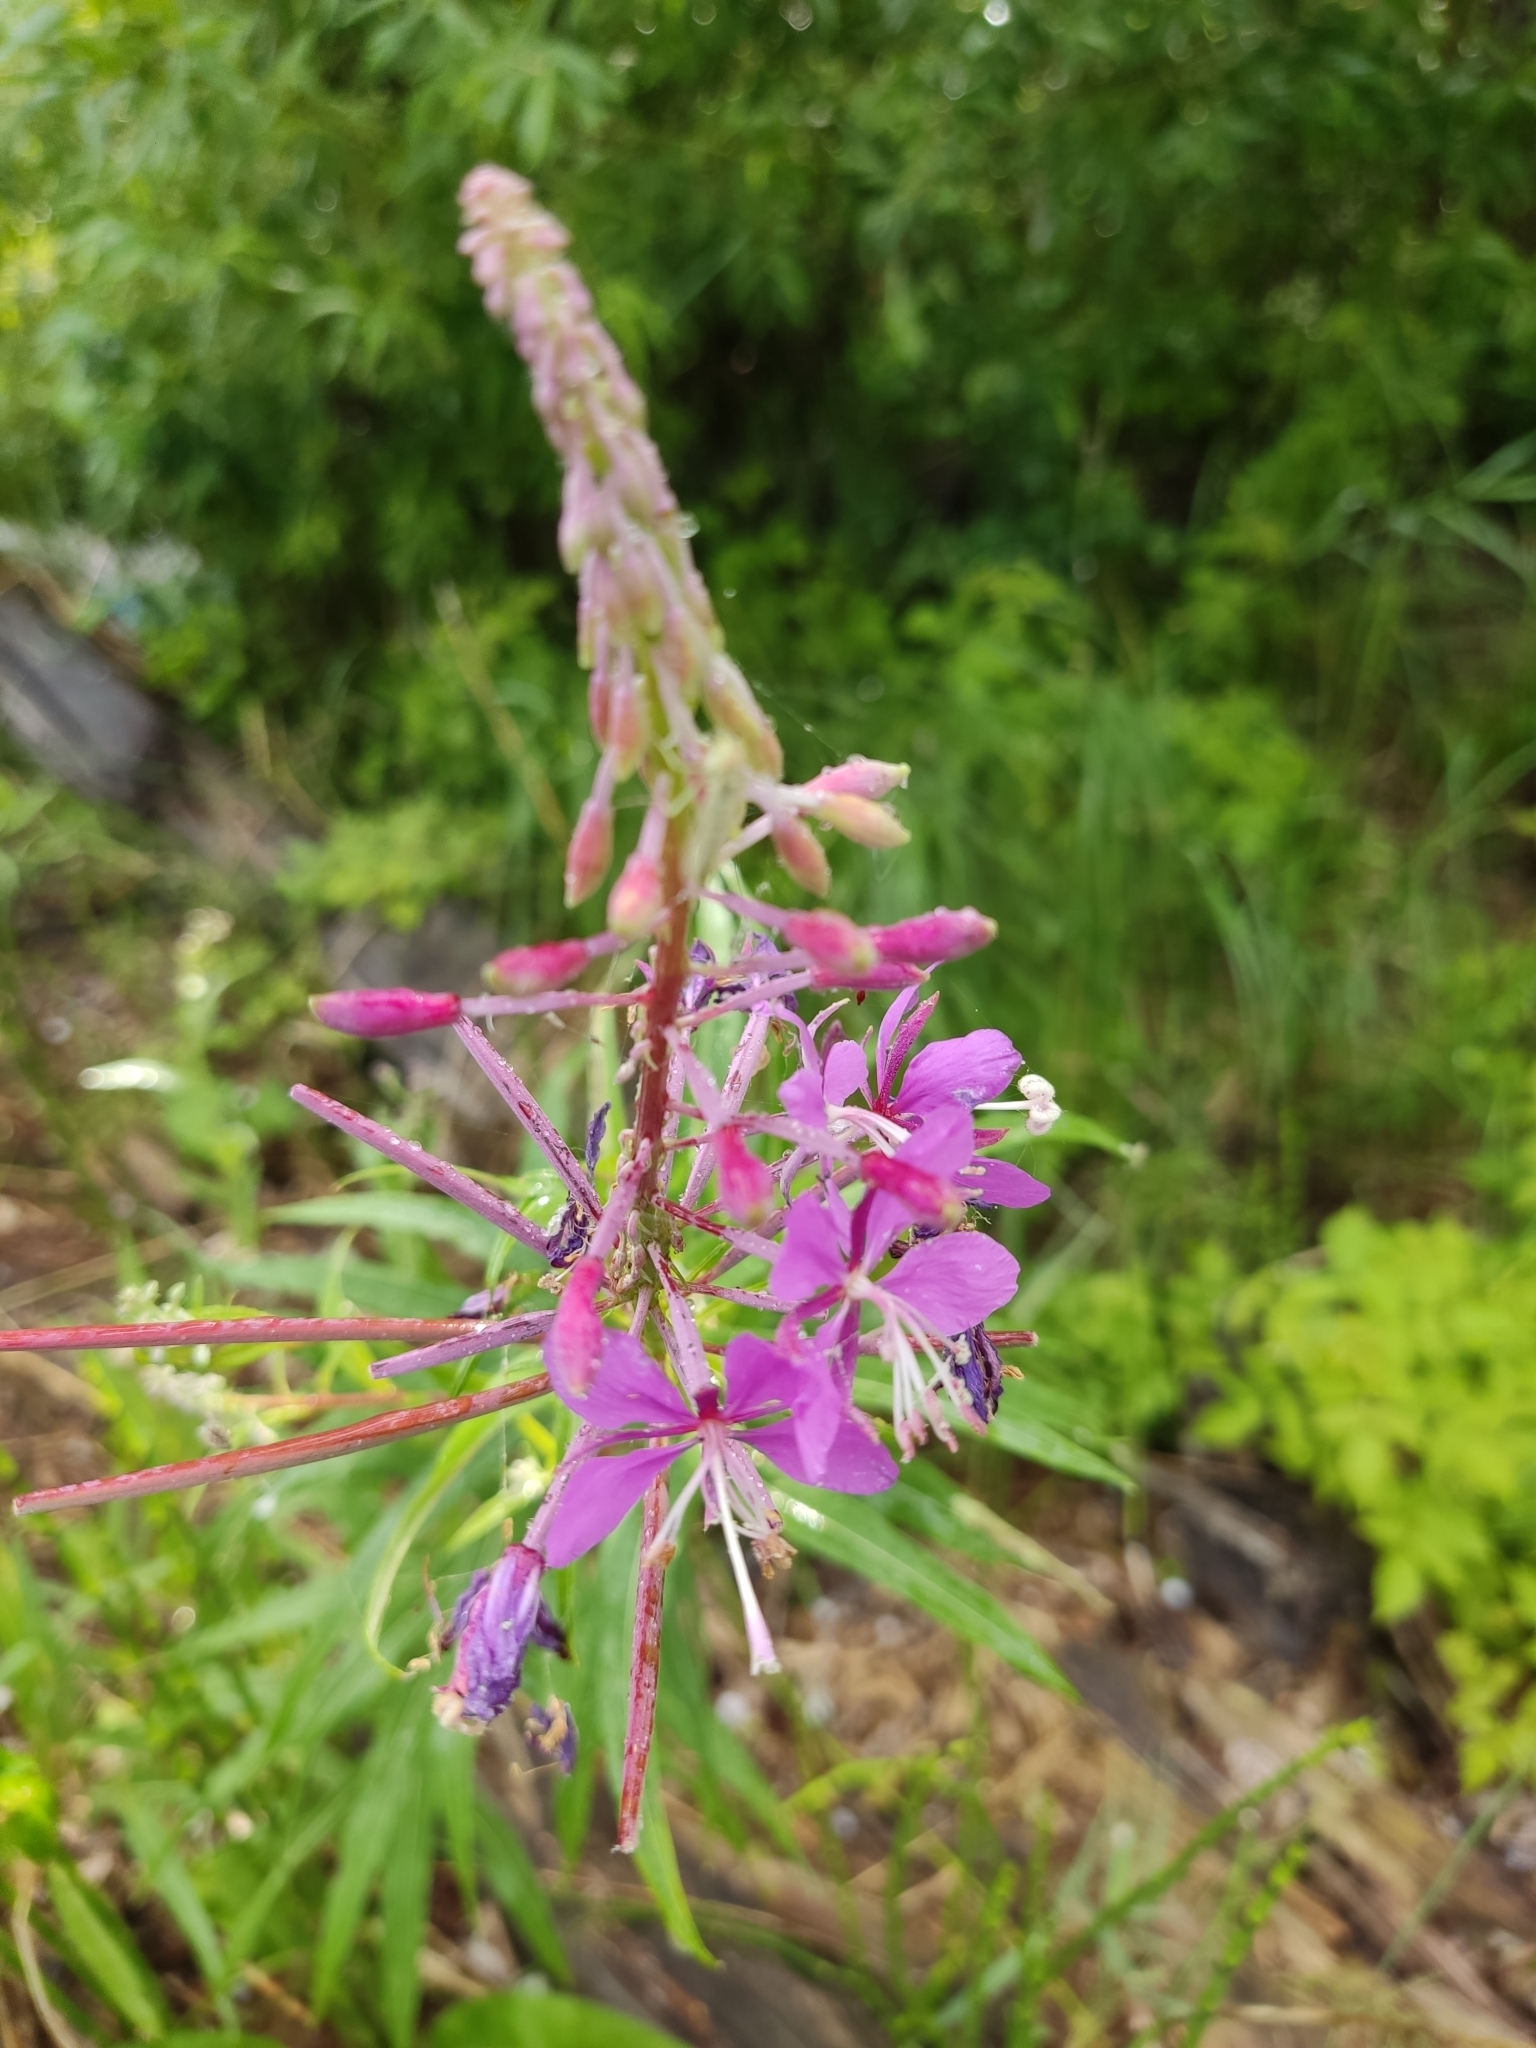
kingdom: Plantae
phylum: Tracheophyta
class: Magnoliopsida
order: Myrtales
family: Onagraceae
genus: Chamaenerion
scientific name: Chamaenerion angustifolium
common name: Fireweed
